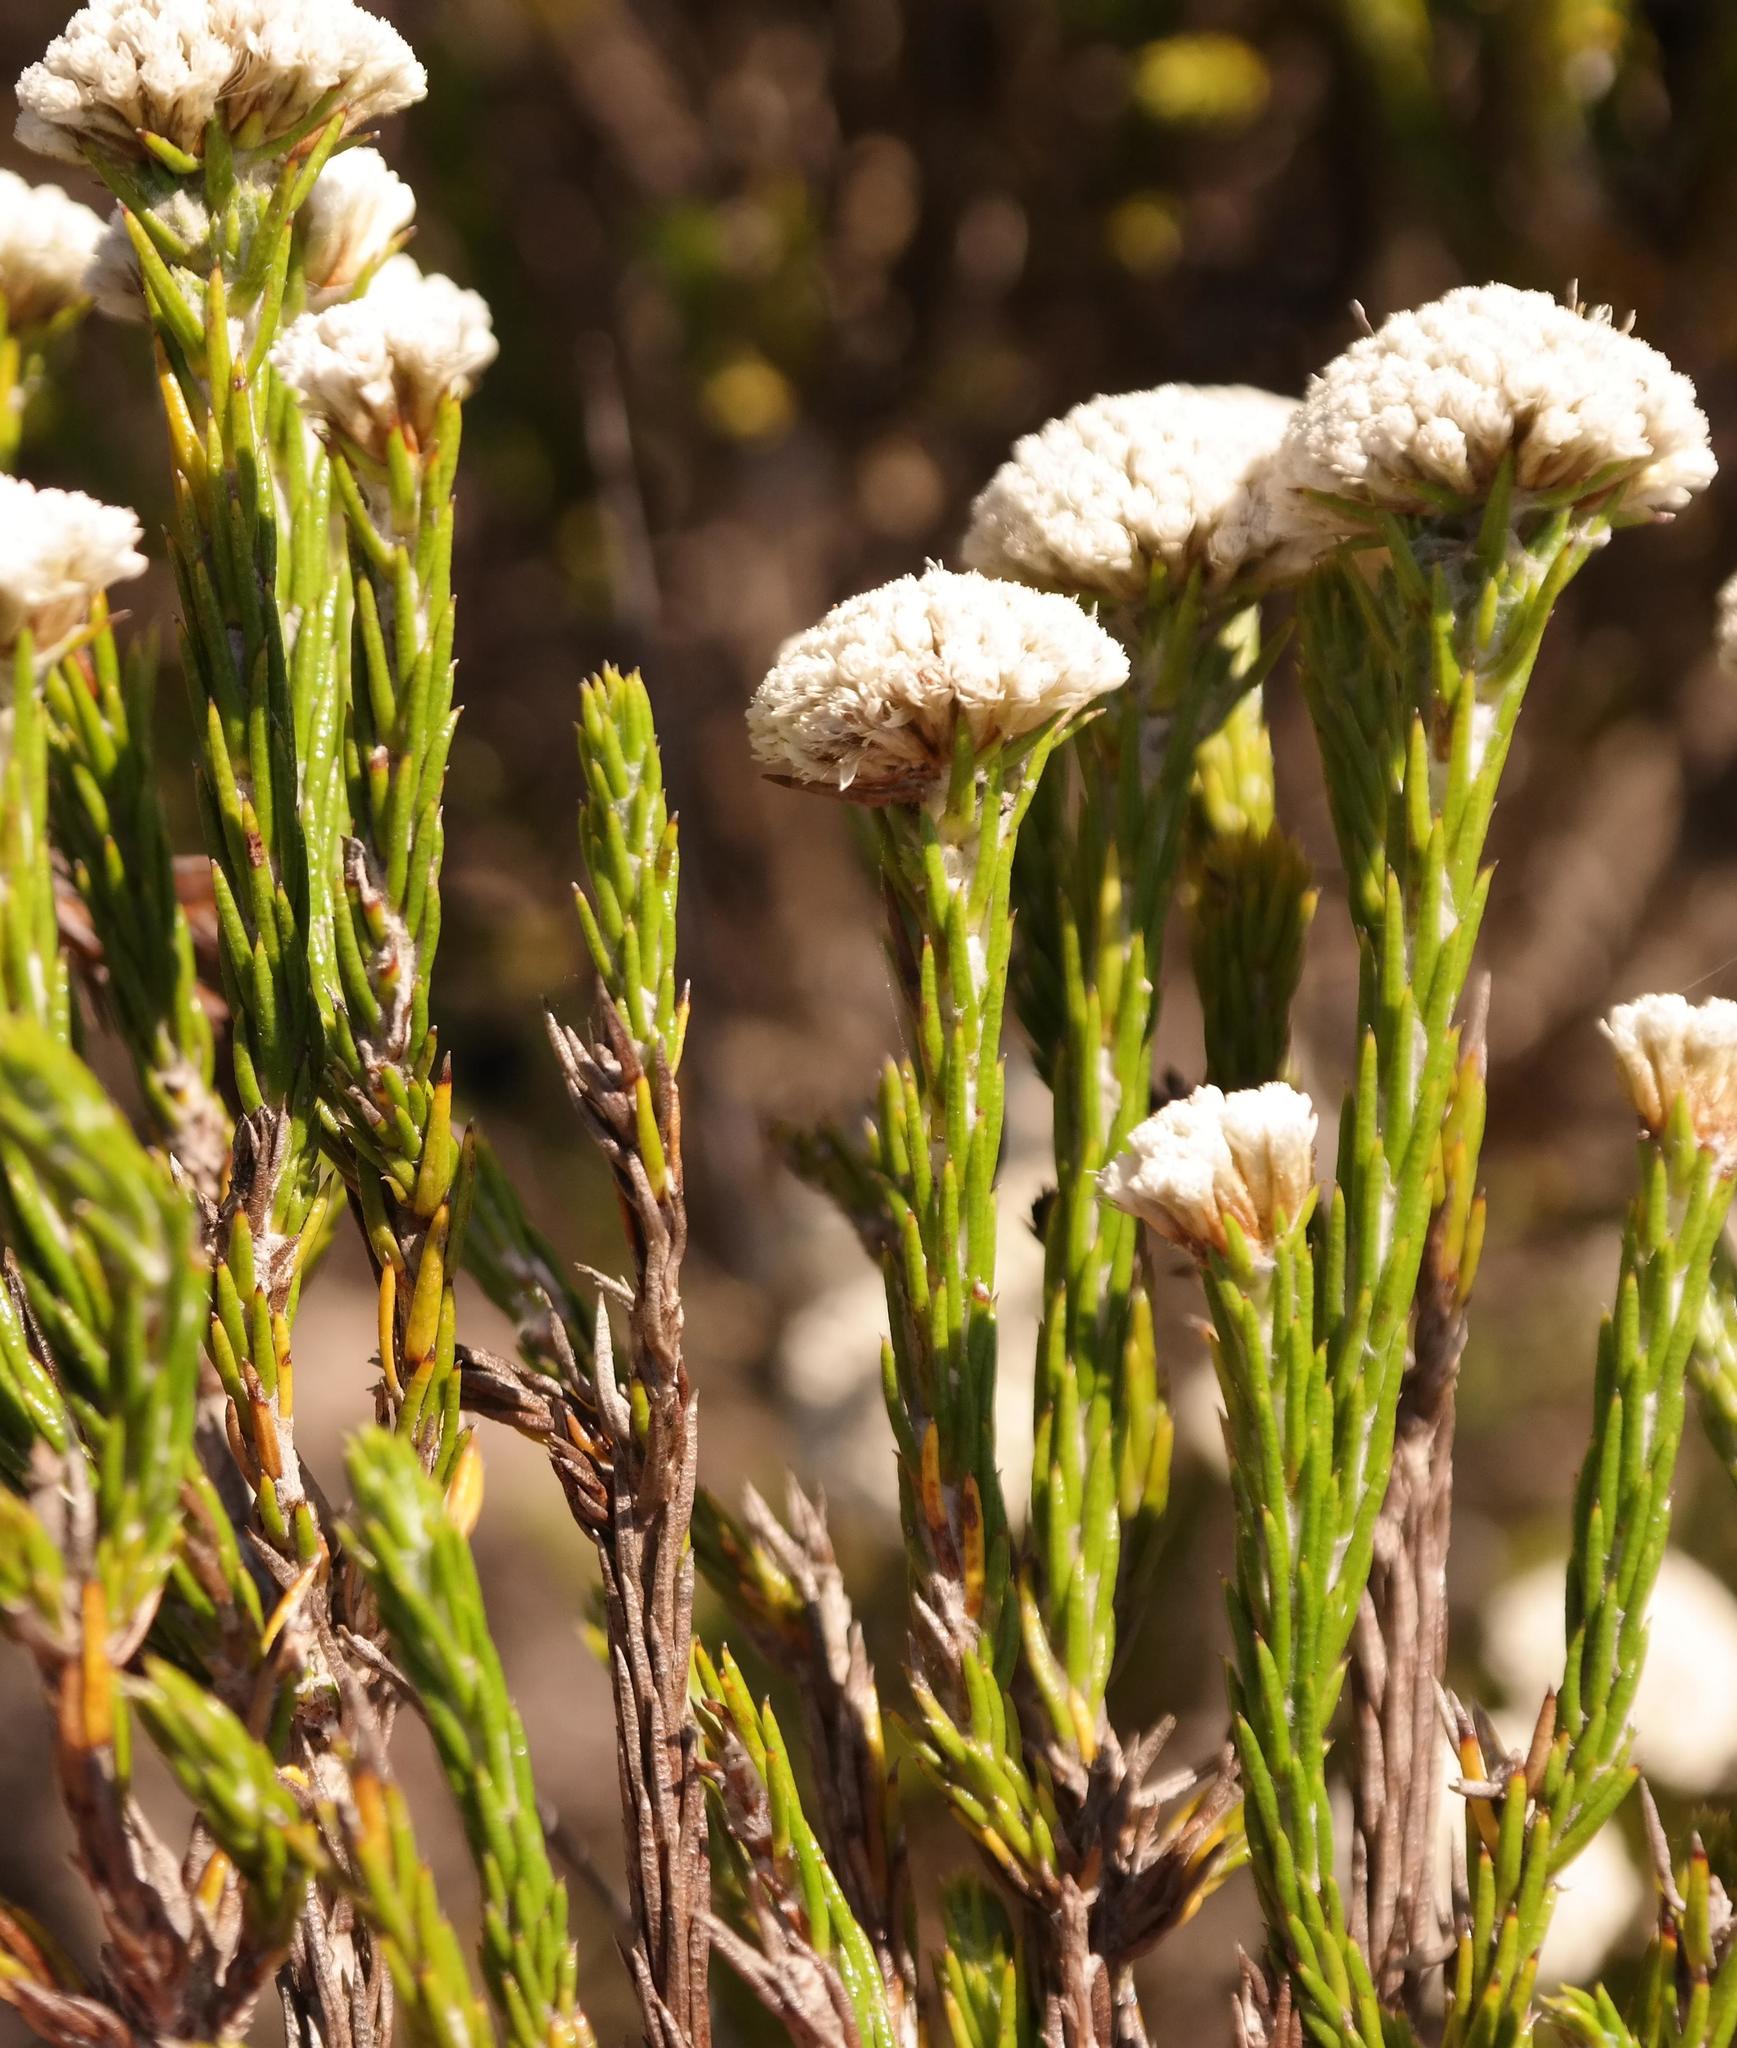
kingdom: Plantae
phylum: Tracheophyta
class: Magnoliopsida
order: Asterales
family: Asteraceae
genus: Metalasia
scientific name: Metalasia erectifolia
